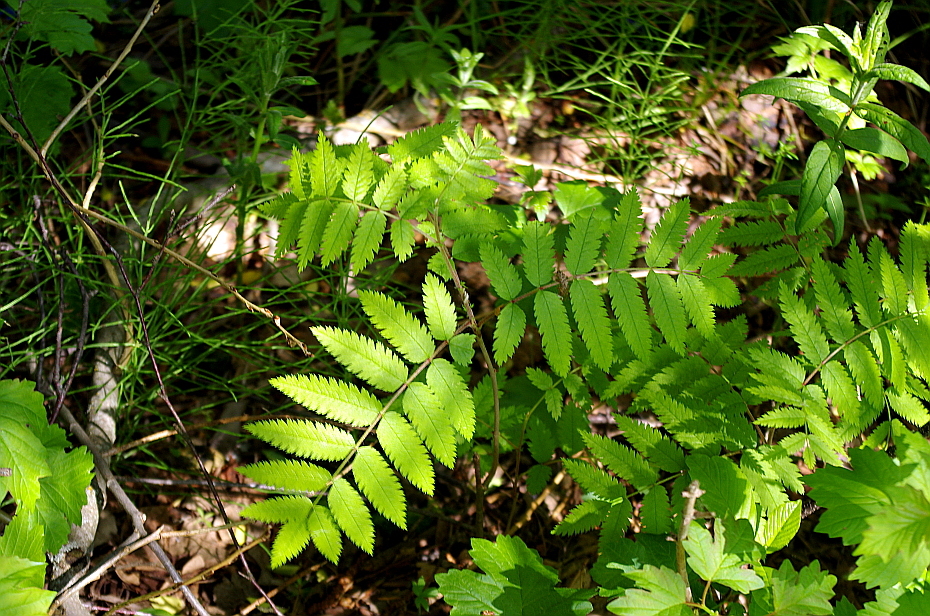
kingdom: Plantae
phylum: Tracheophyta
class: Magnoliopsida
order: Rosales
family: Rosaceae
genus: Sorbus
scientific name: Sorbus aucuparia
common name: Rowan
